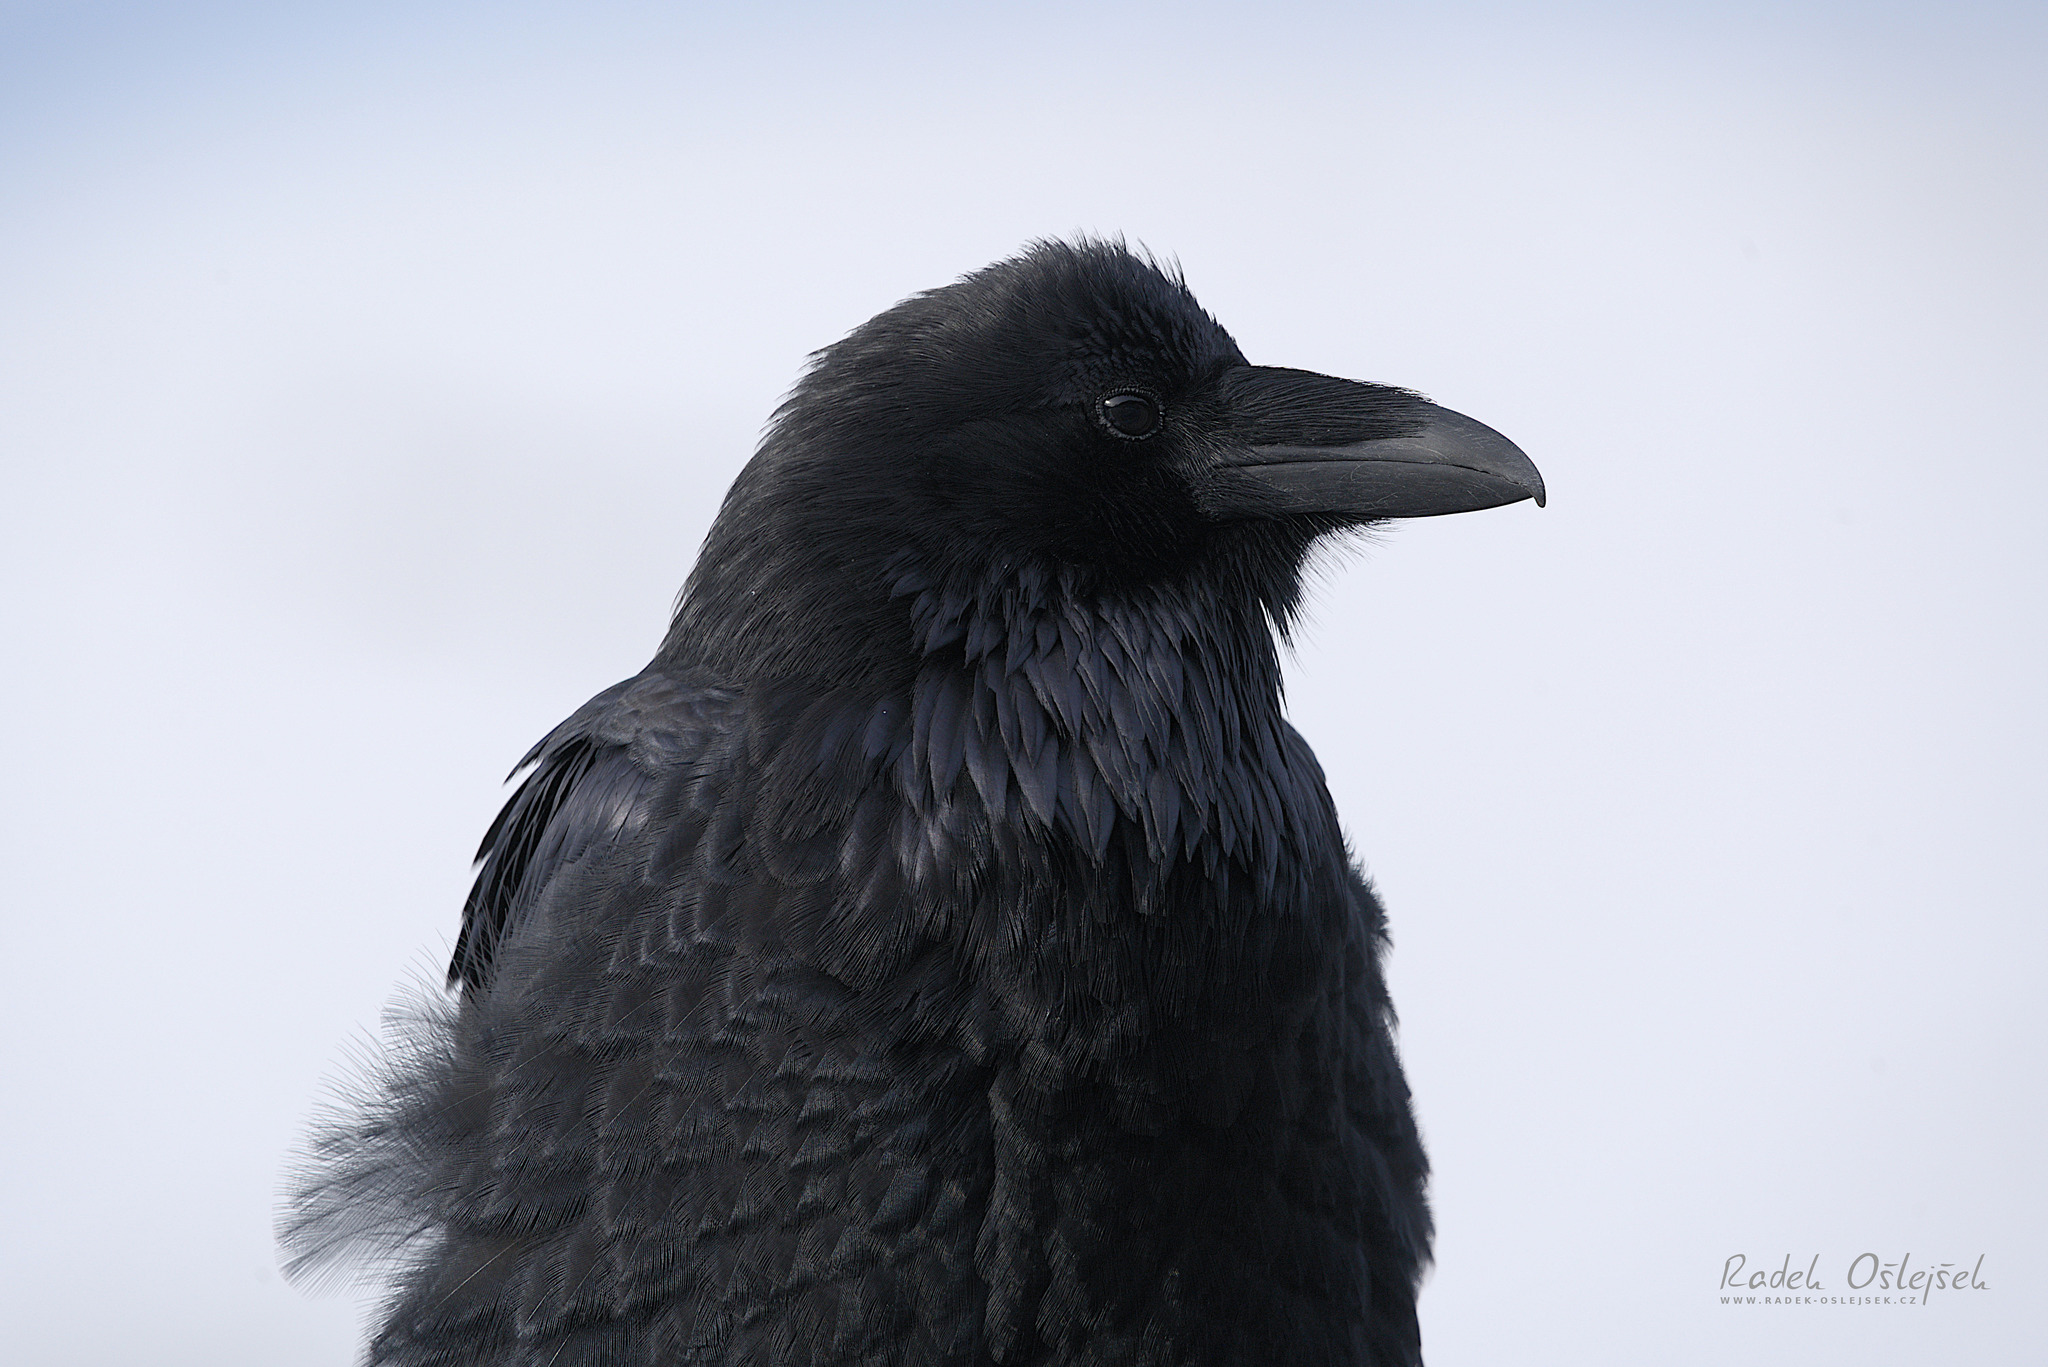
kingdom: Animalia
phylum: Chordata
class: Aves
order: Passeriformes
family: Corvidae
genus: Corvus
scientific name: Corvus corax
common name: Common raven
